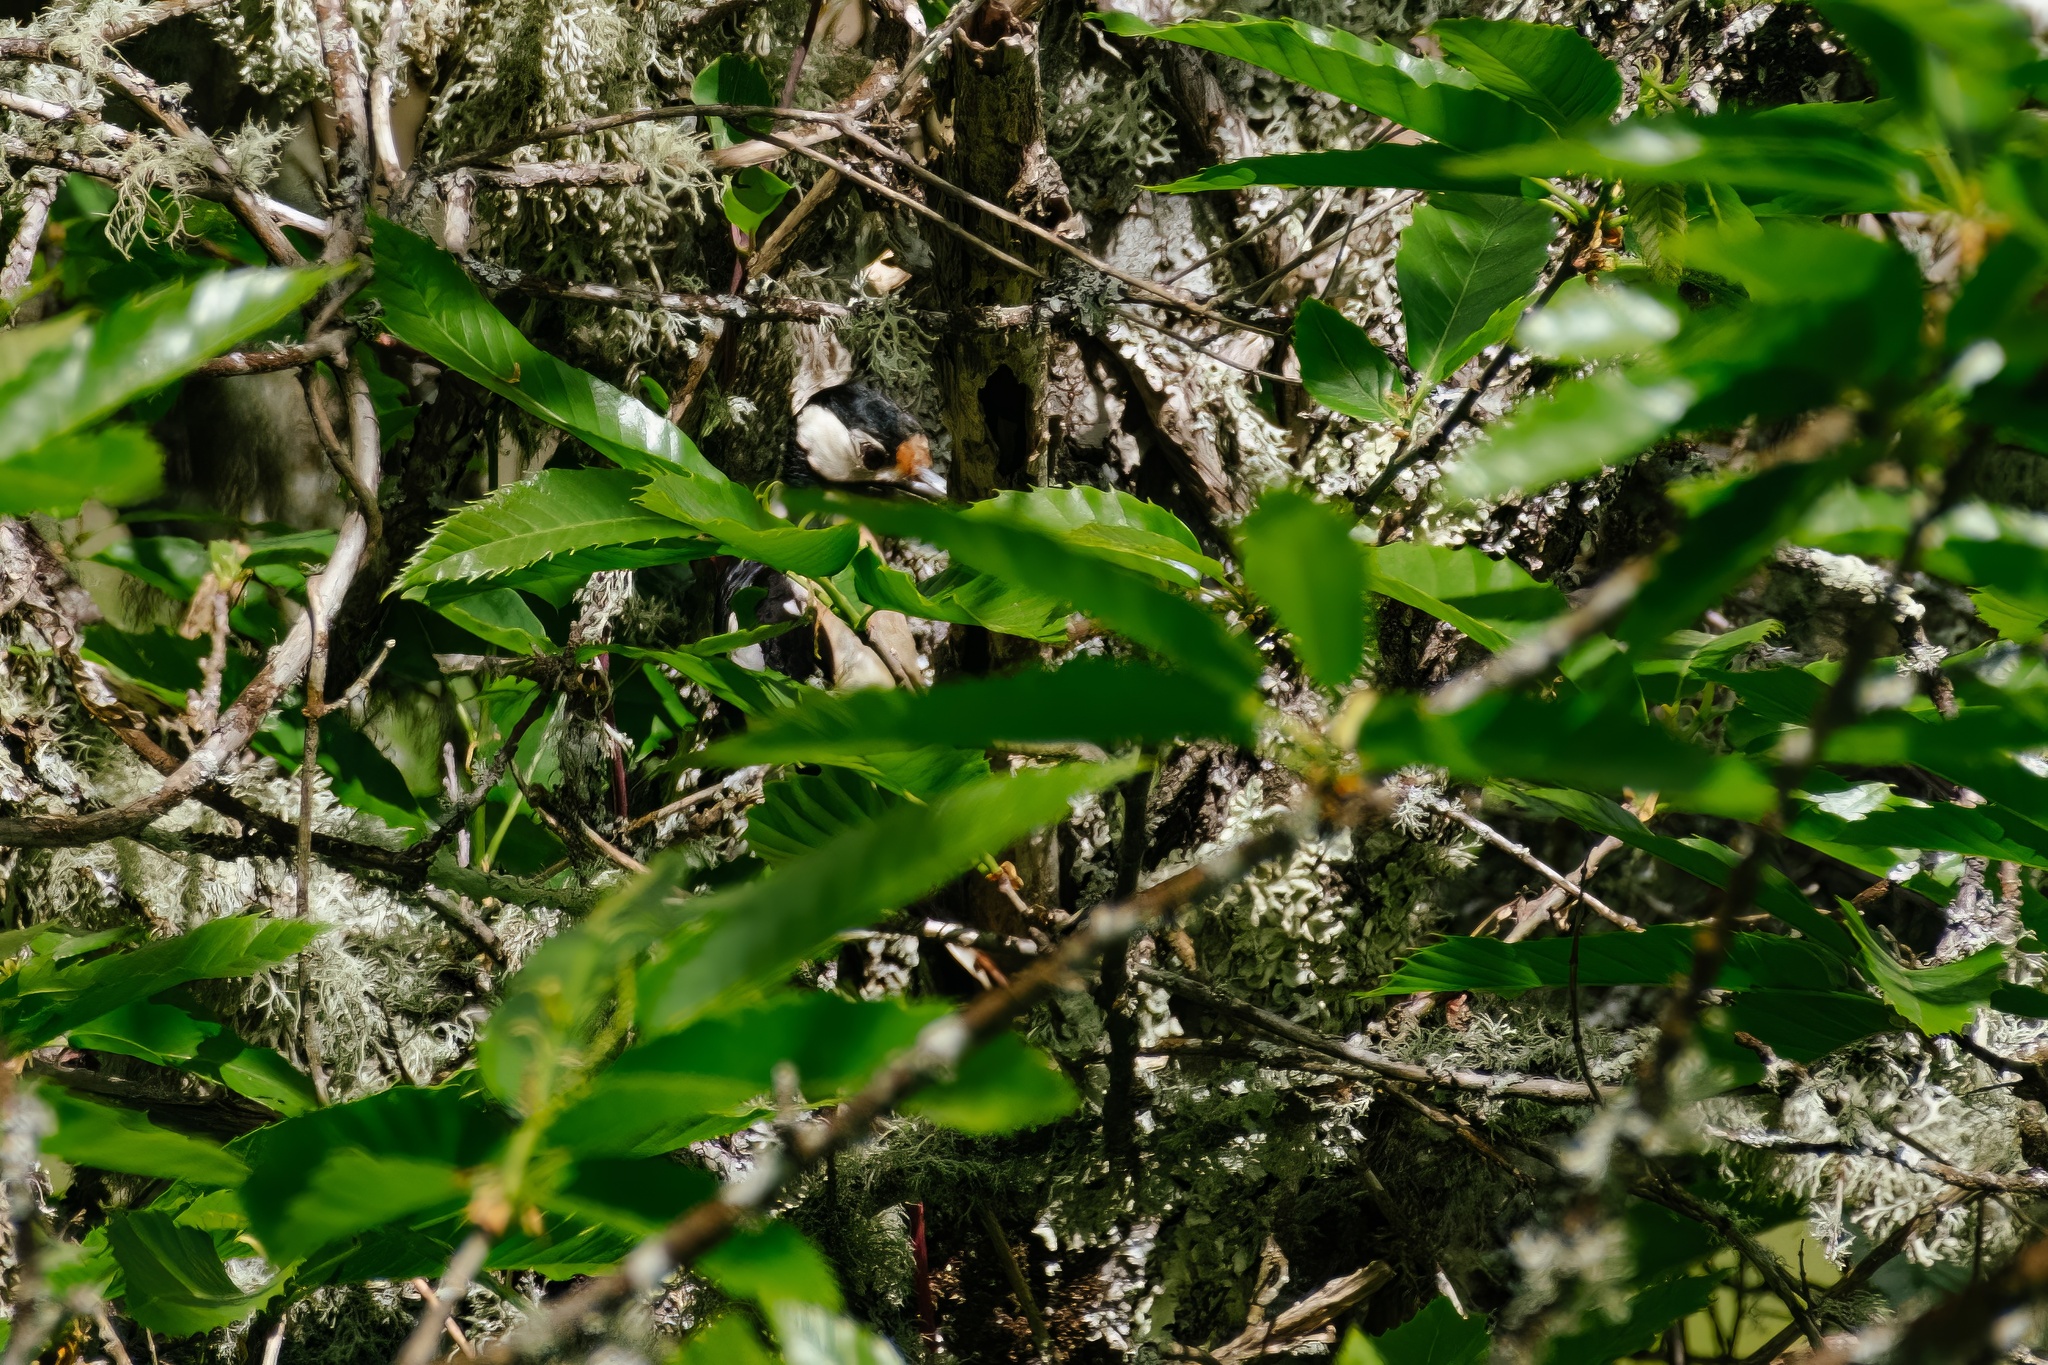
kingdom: Animalia
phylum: Chordata
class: Aves
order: Piciformes
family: Picidae
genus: Dendrocopos
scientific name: Dendrocopos major
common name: Great spotted woodpecker
